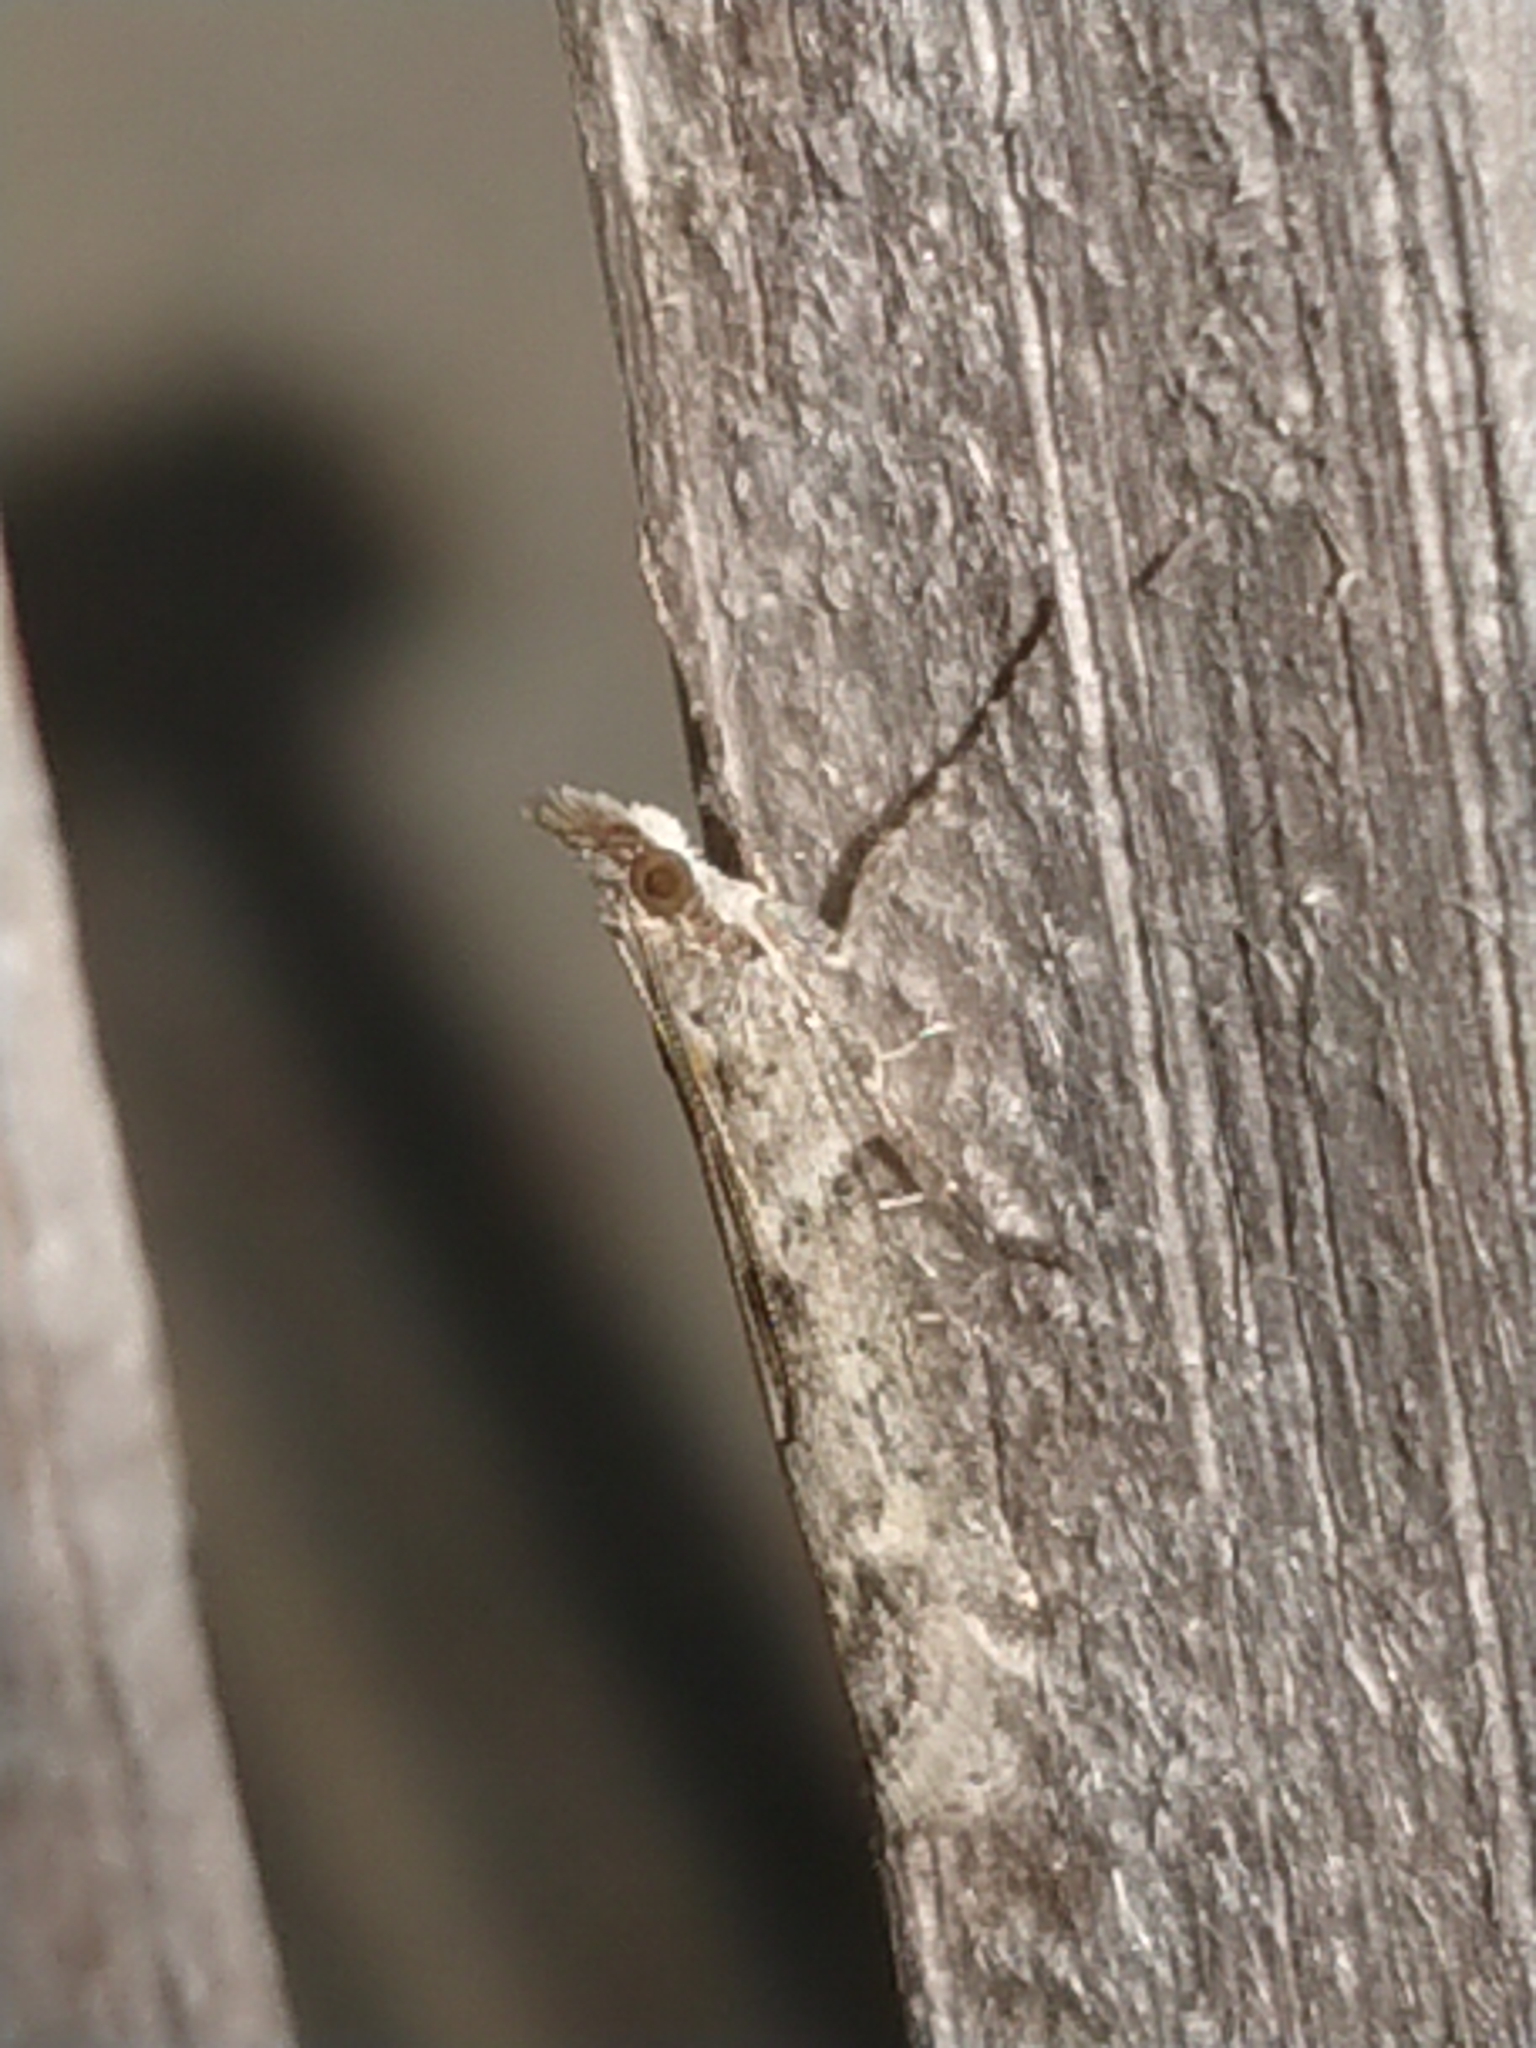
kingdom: Animalia
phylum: Arthropoda
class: Insecta
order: Lepidoptera
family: Crambidae
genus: Eudonia
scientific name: Eudonia leptalea
